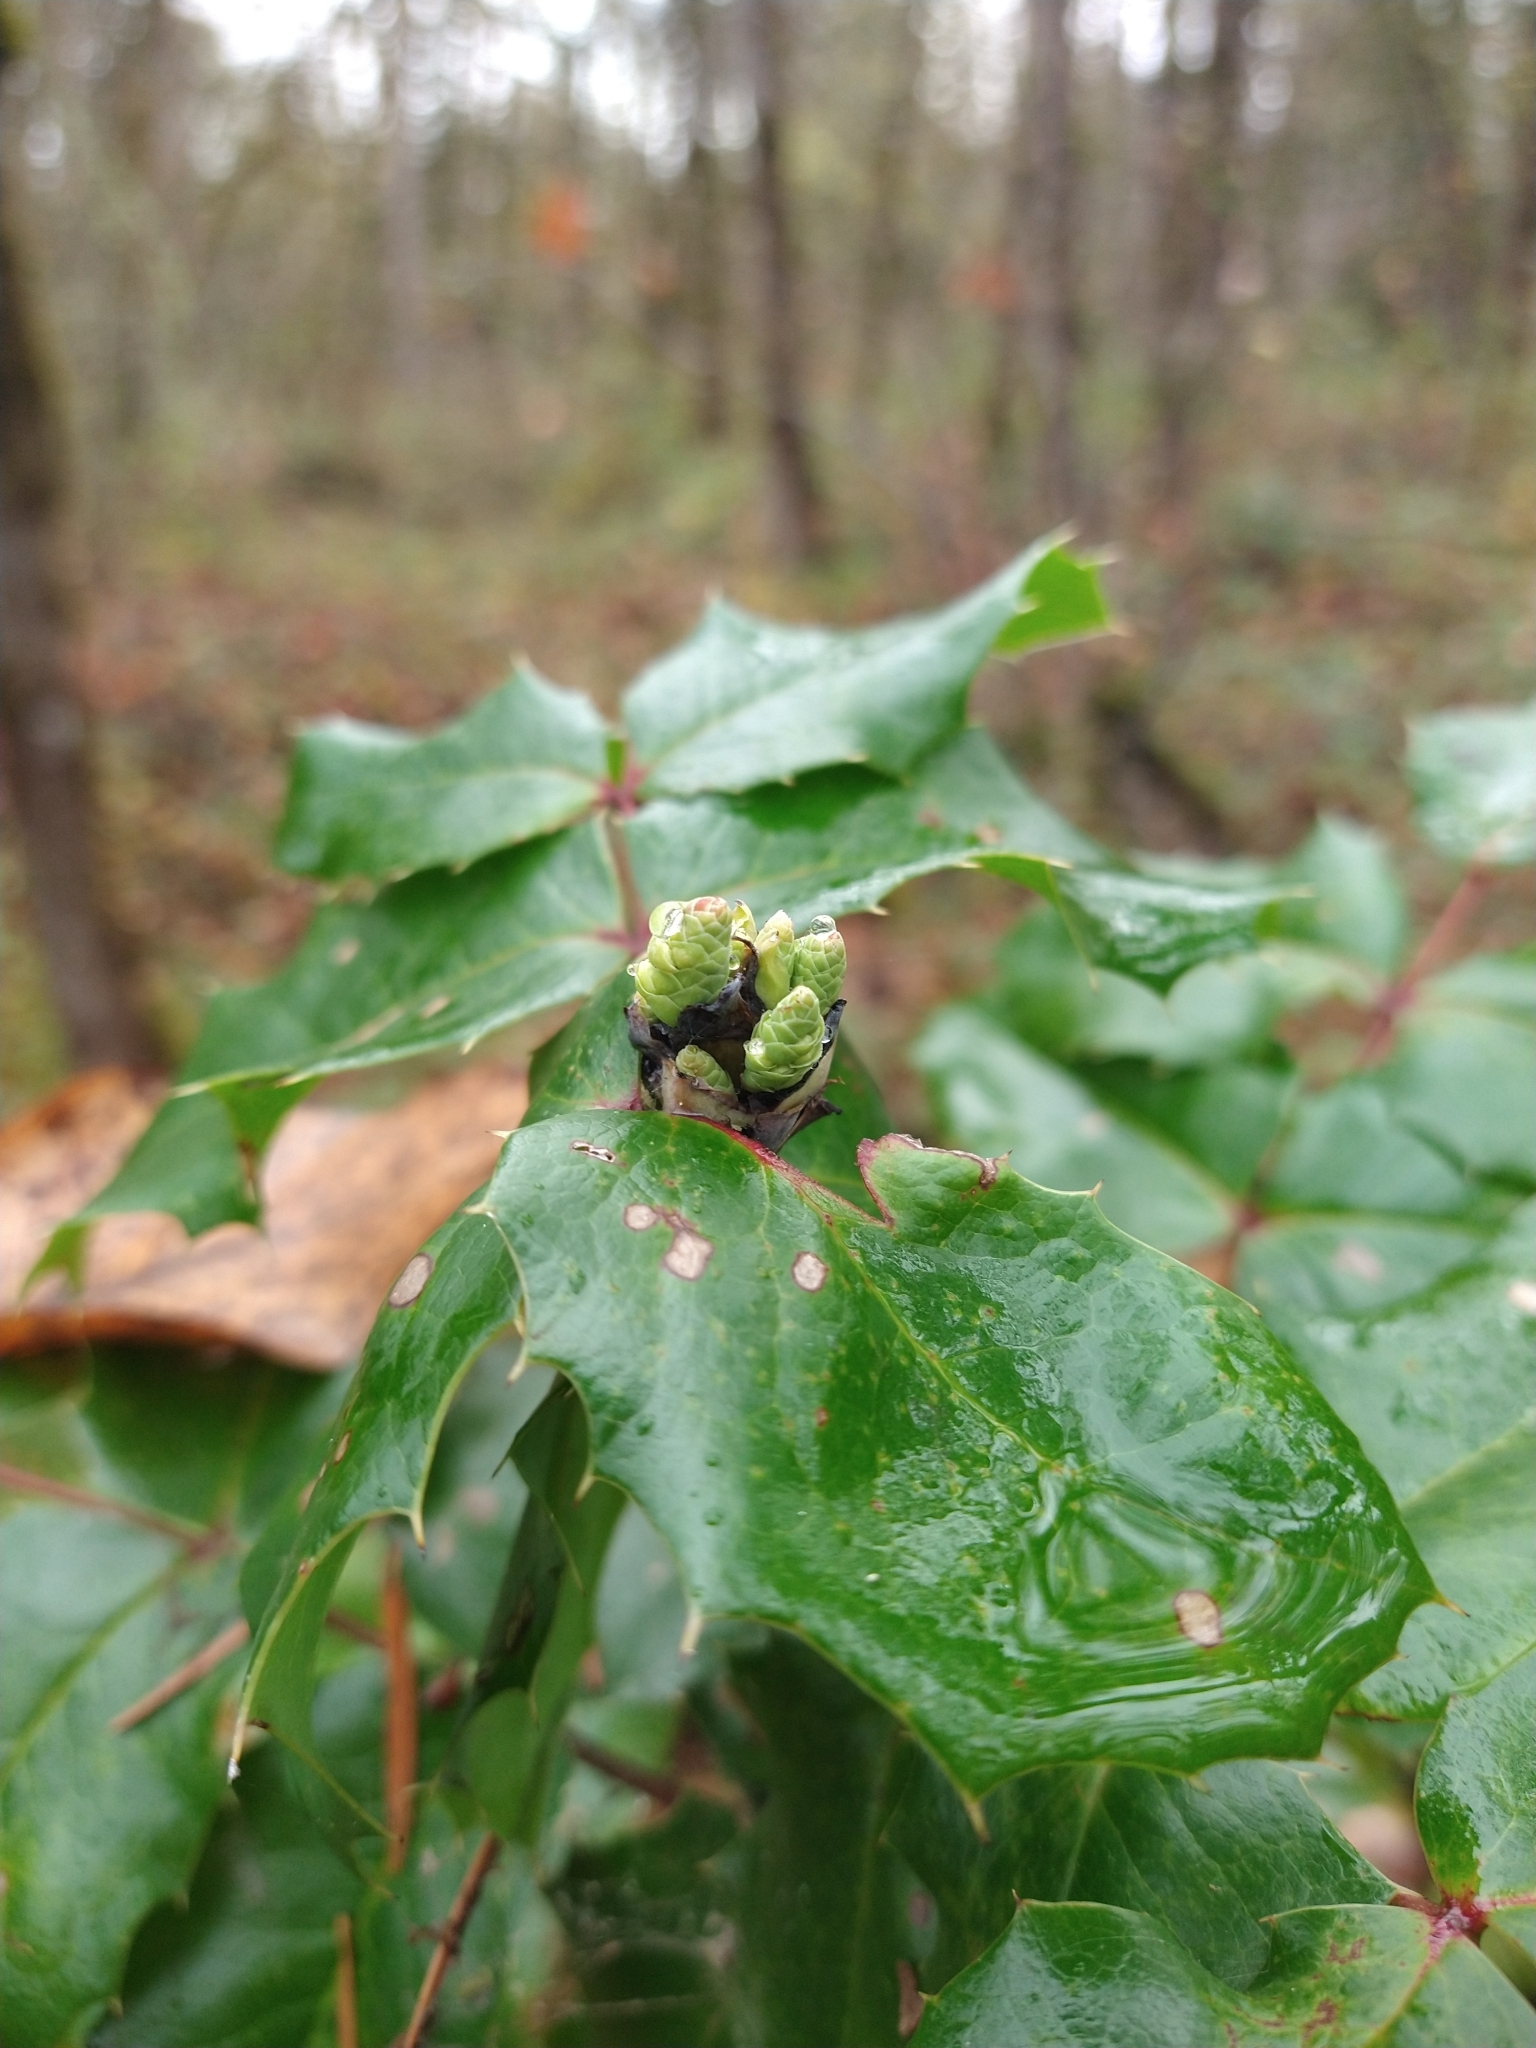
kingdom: Plantae
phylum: Tracheophyta
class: Magnoliopsida
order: Ranunculales
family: Berberidaceae
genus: Mahonia
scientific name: Mahonia aquifolium
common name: Oregon-grape
